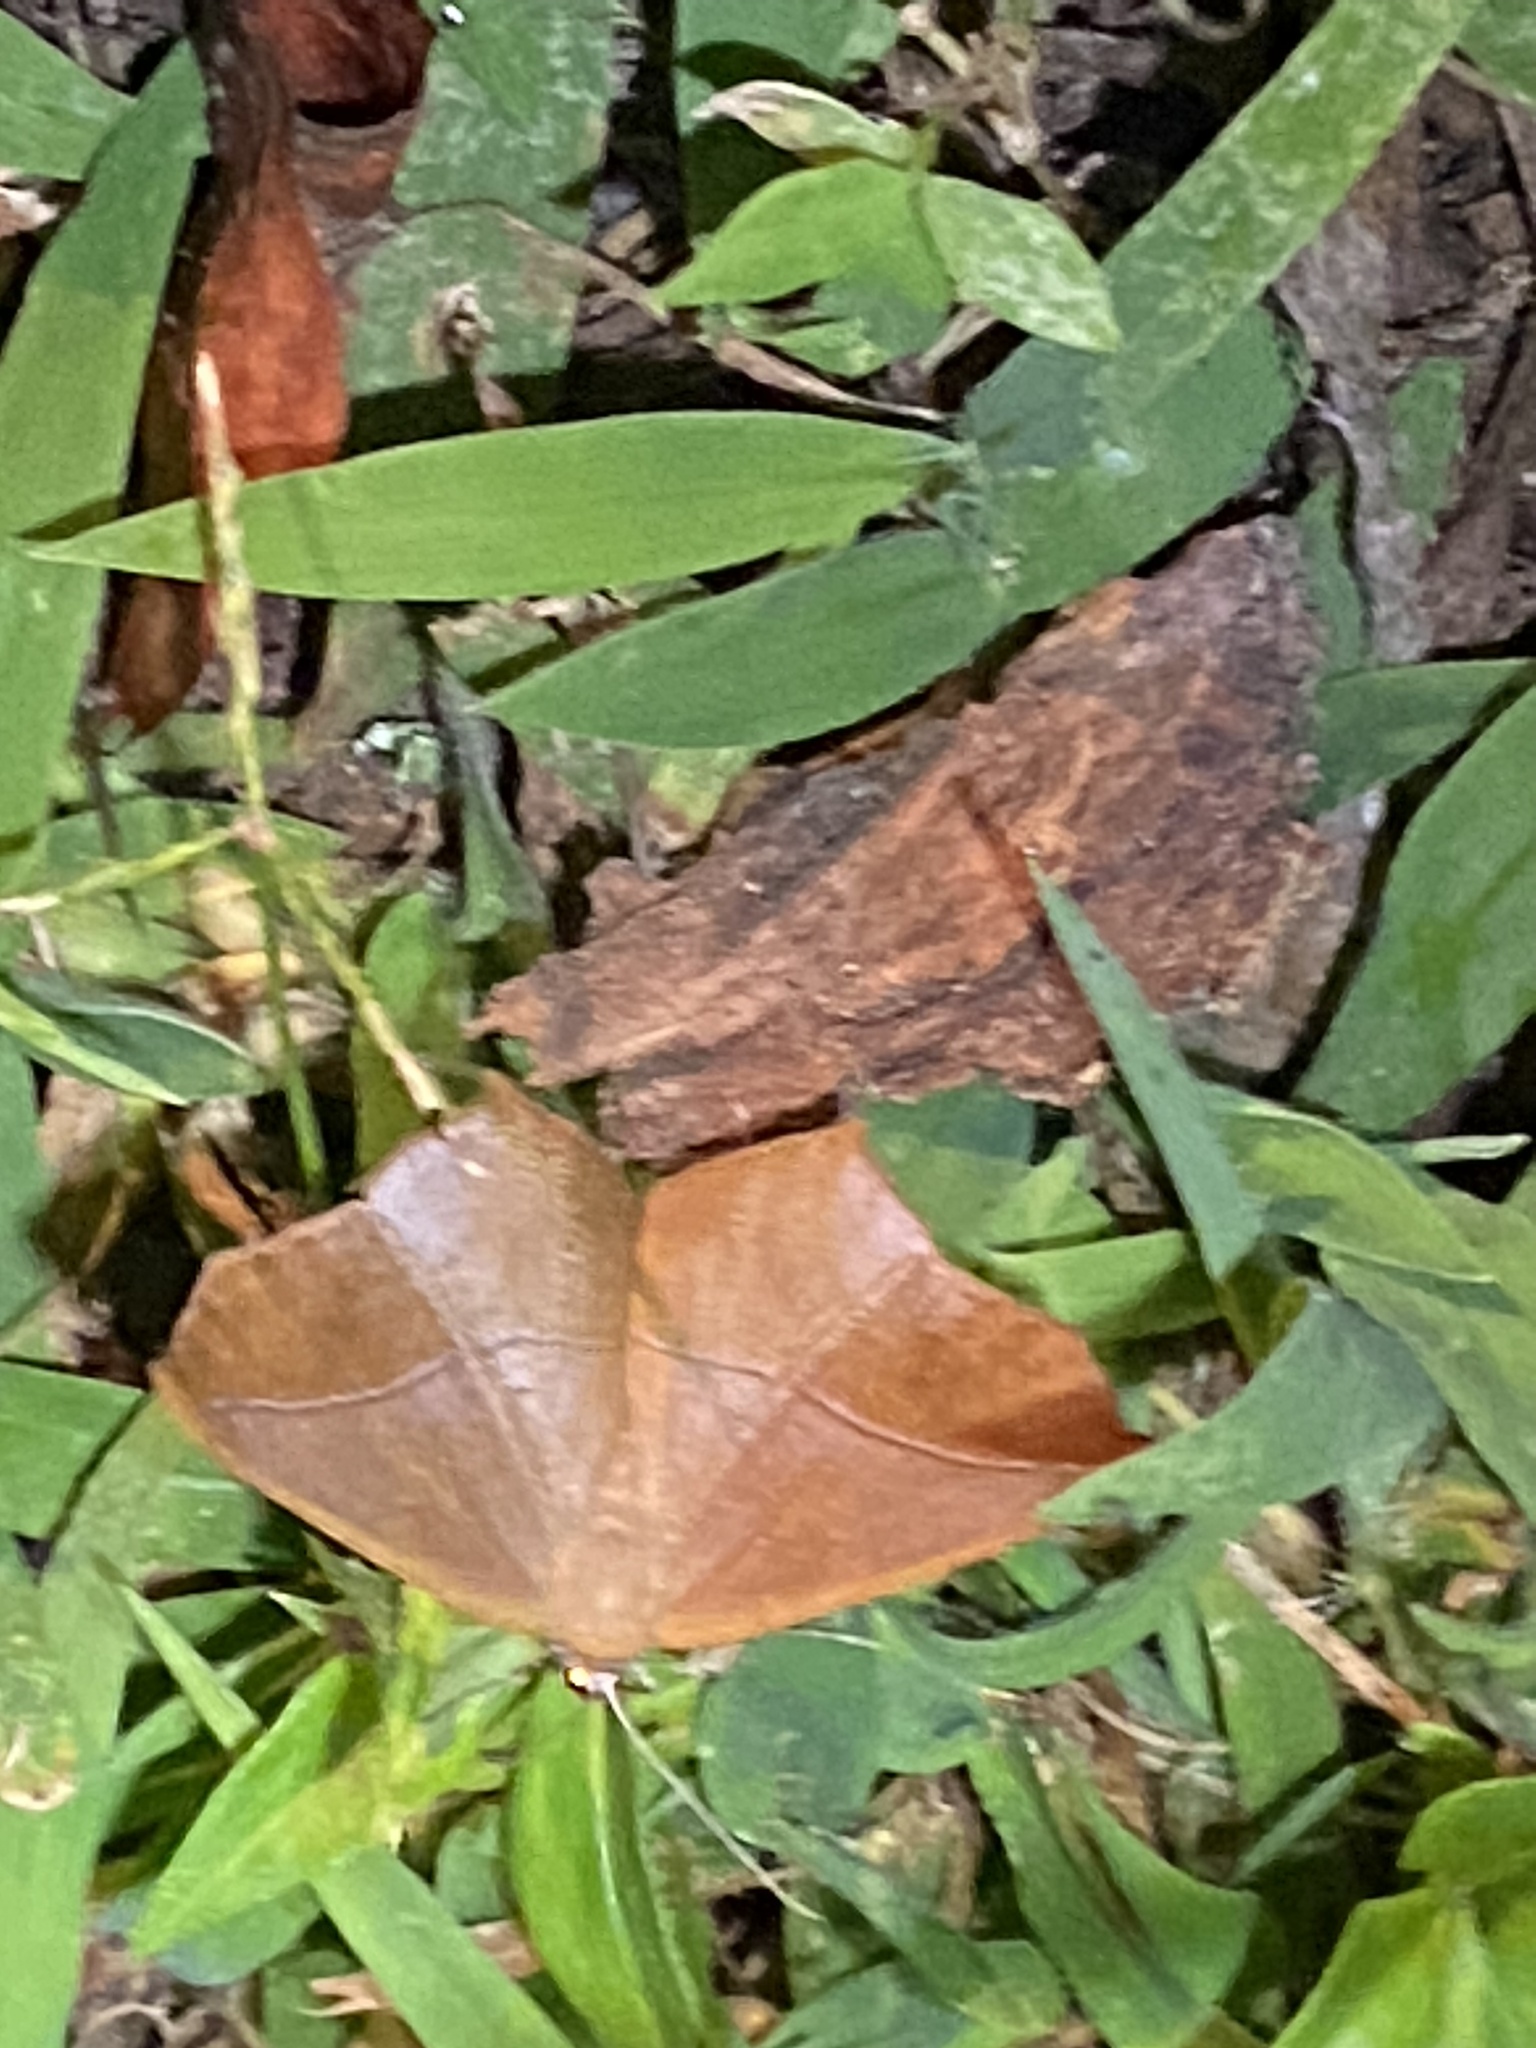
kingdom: Animalia
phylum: Arthropoda
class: Insecta
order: Lepidoptera
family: Geometridae
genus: Prochoerodes
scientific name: Prochoerodes lineola
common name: Large maple spanworm
